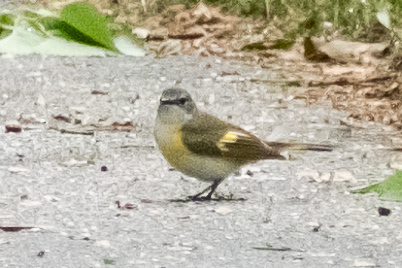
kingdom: Animalia
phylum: Chordata
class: Aves
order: Passeriformes
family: Parulidae
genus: Setophaga
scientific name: Setophaga ruticilla
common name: American redstart
